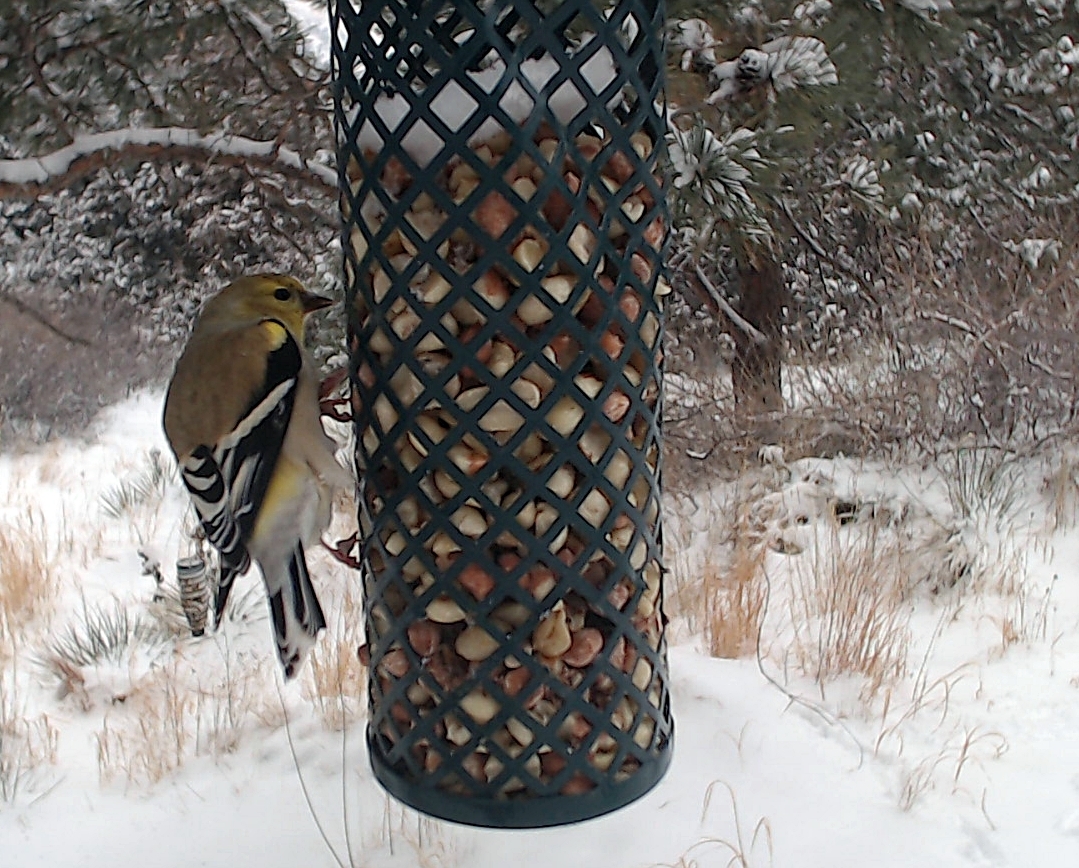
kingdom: Animalia
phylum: Chordata
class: Aves
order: Passeriformes
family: Fringillidae
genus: Spinus
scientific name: Spinus tristis
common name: American goldfinch
